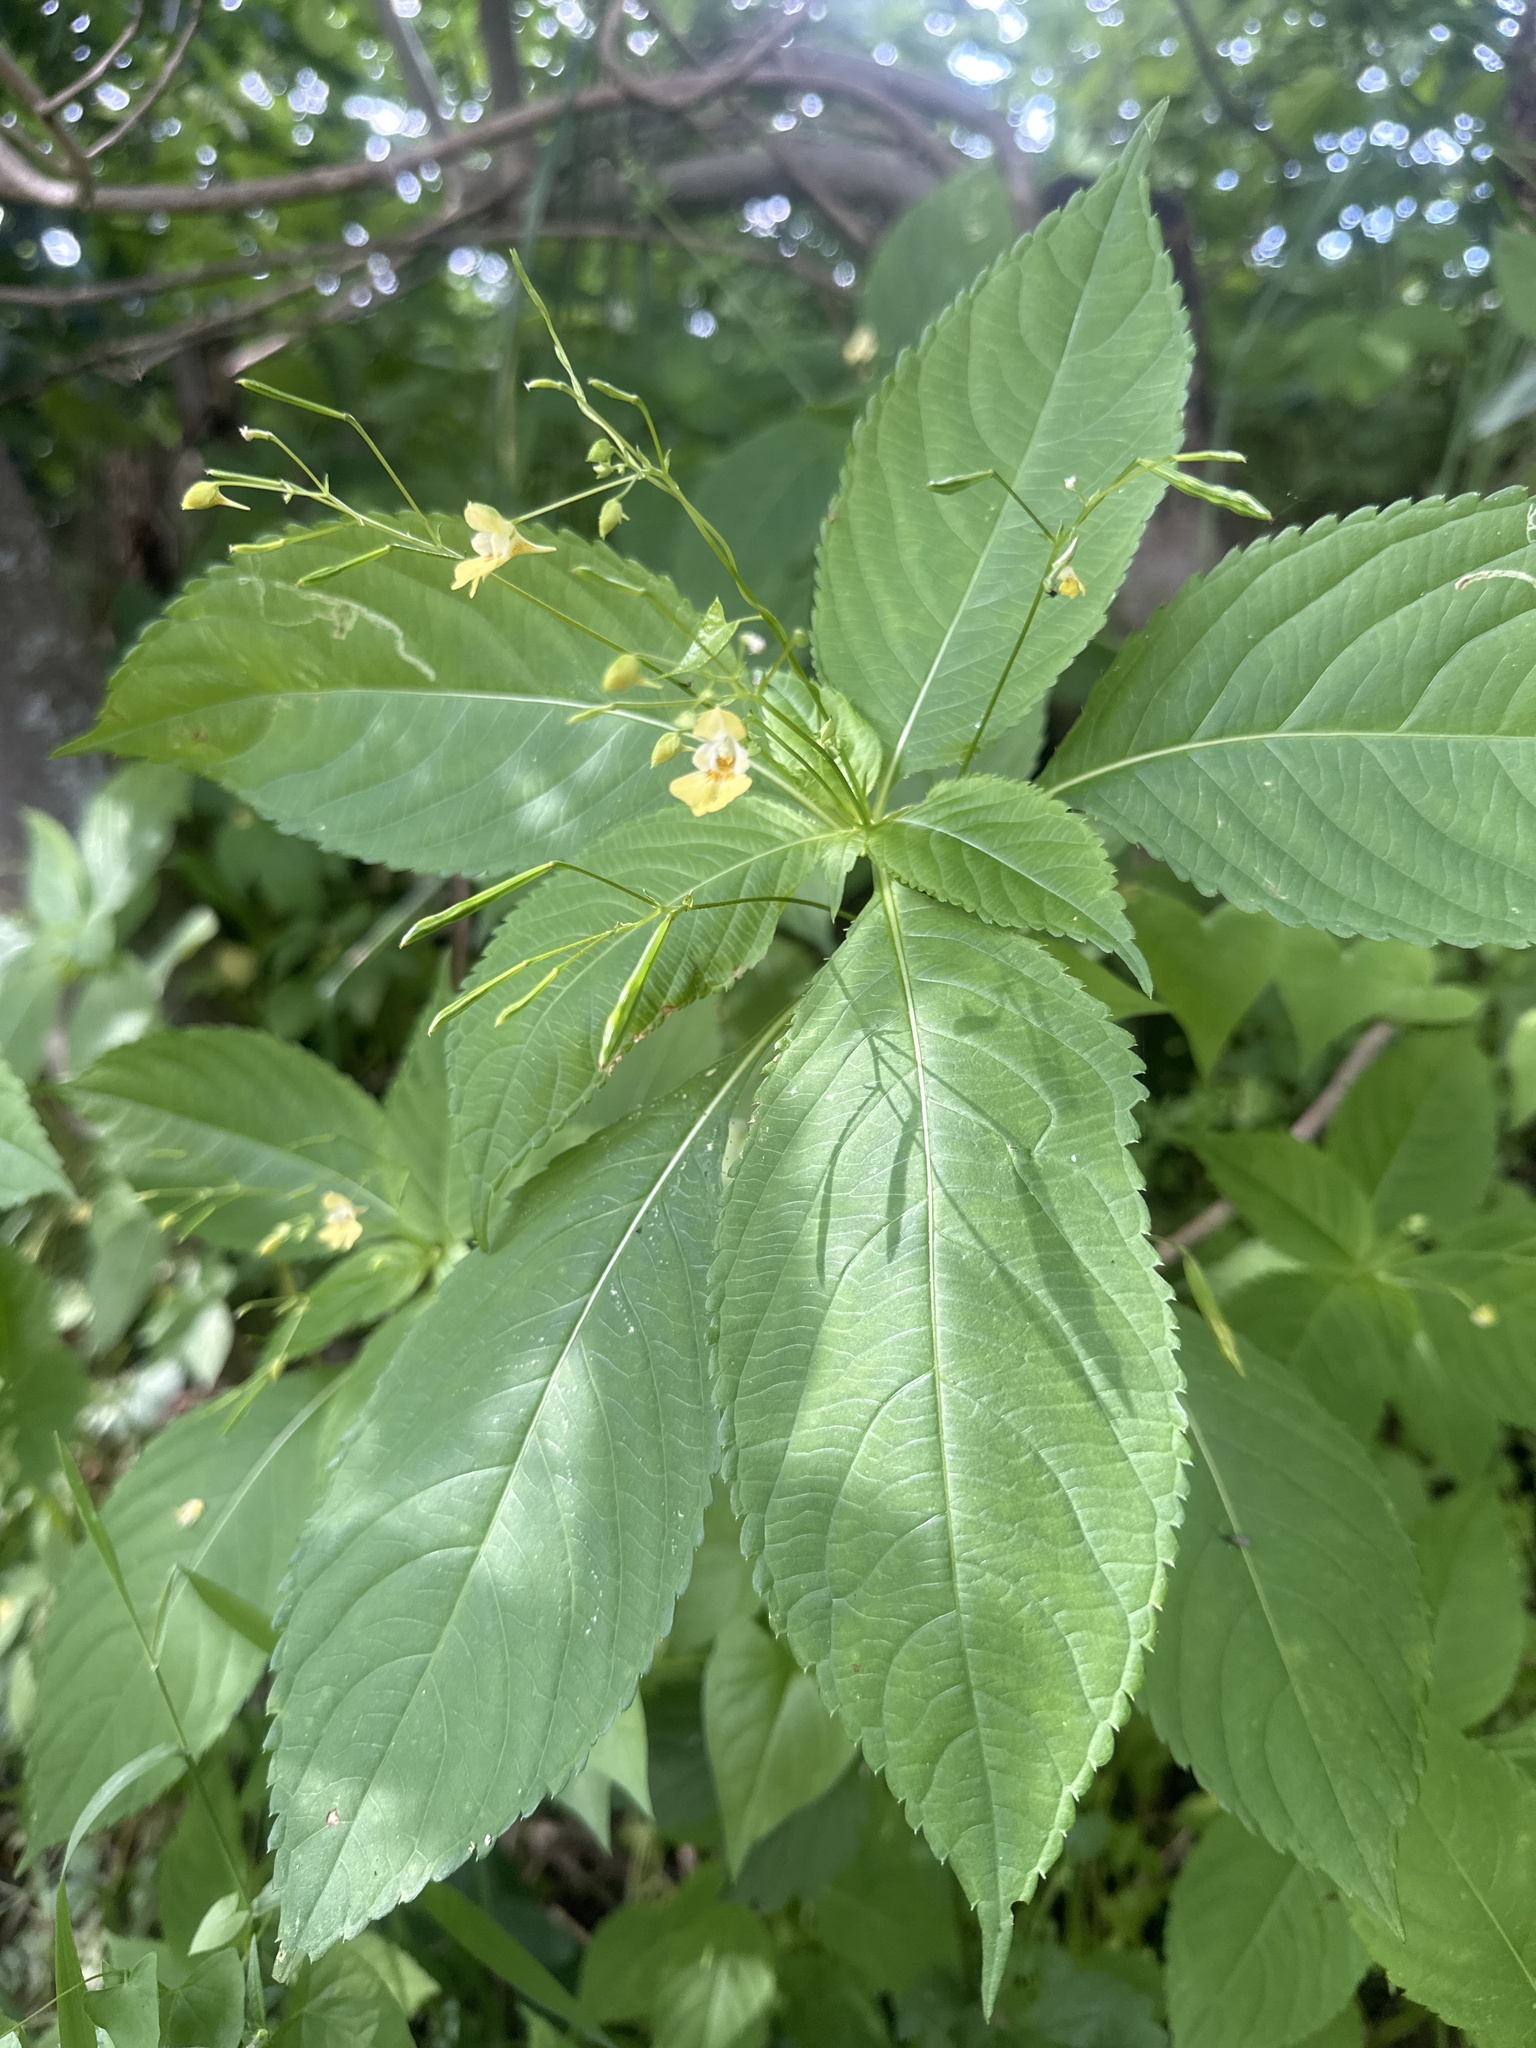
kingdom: Plantae
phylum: Tracheophyta
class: Magnoliopsida
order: Ericales
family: Balsaminaceae
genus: Impatiens
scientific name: Impatiens parviflora
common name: Small balsam
